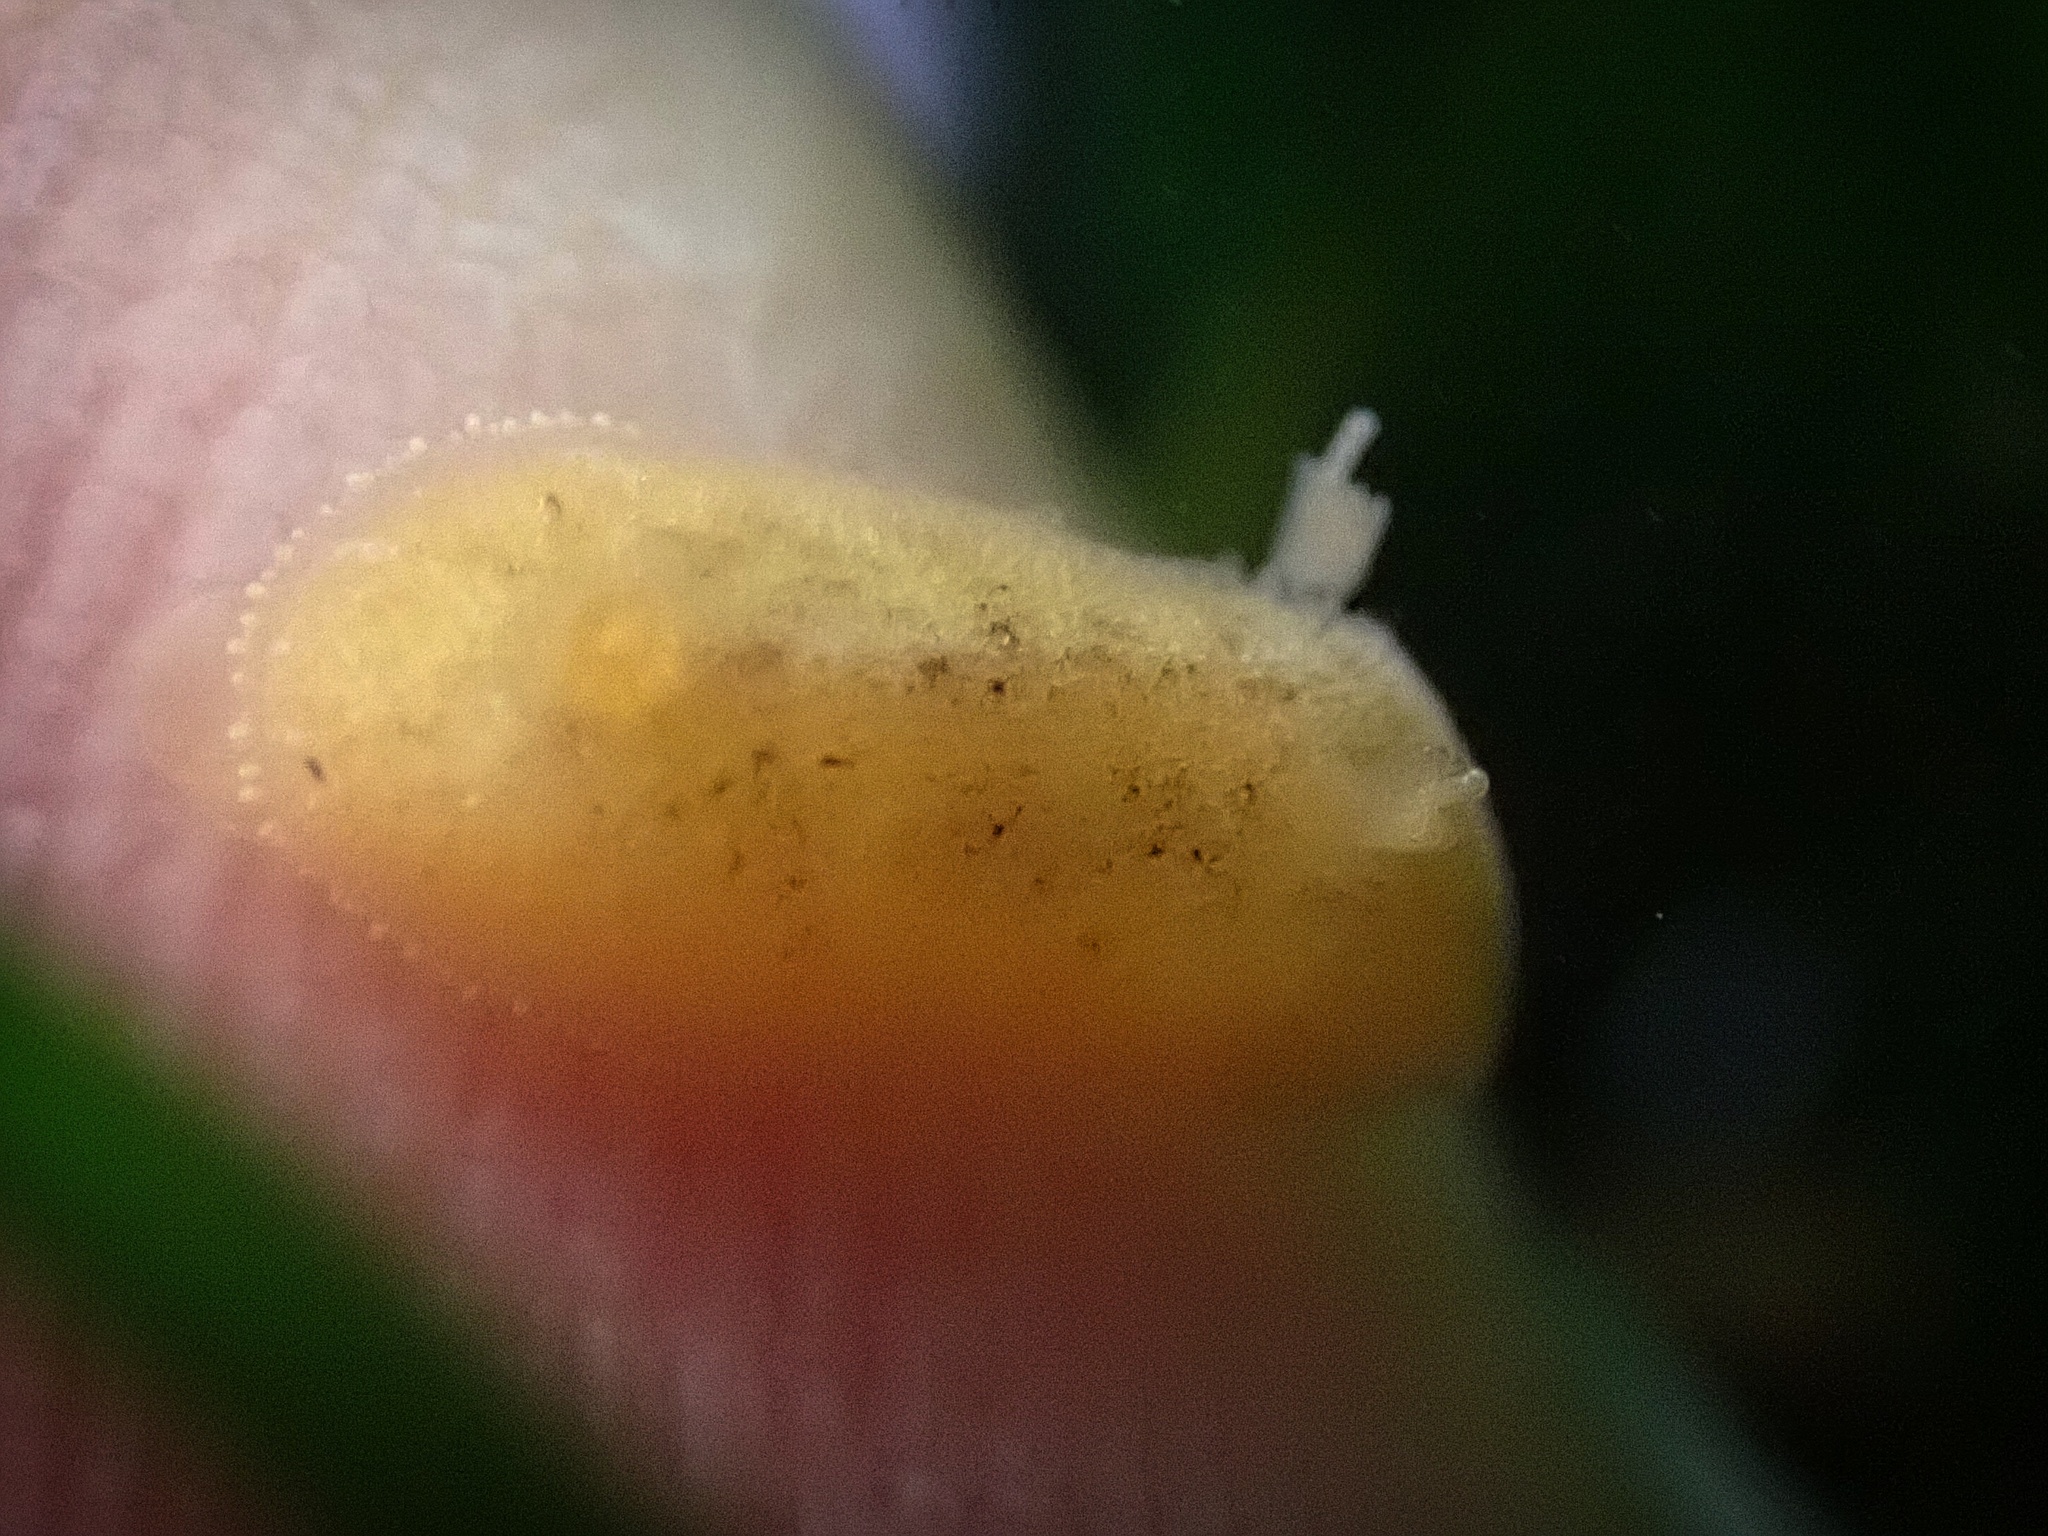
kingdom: Animalia
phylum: Mollusca
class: Gastropoda
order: Nudibranchia
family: Discodorididae
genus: Rostanga
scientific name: Rostanga pulchra
